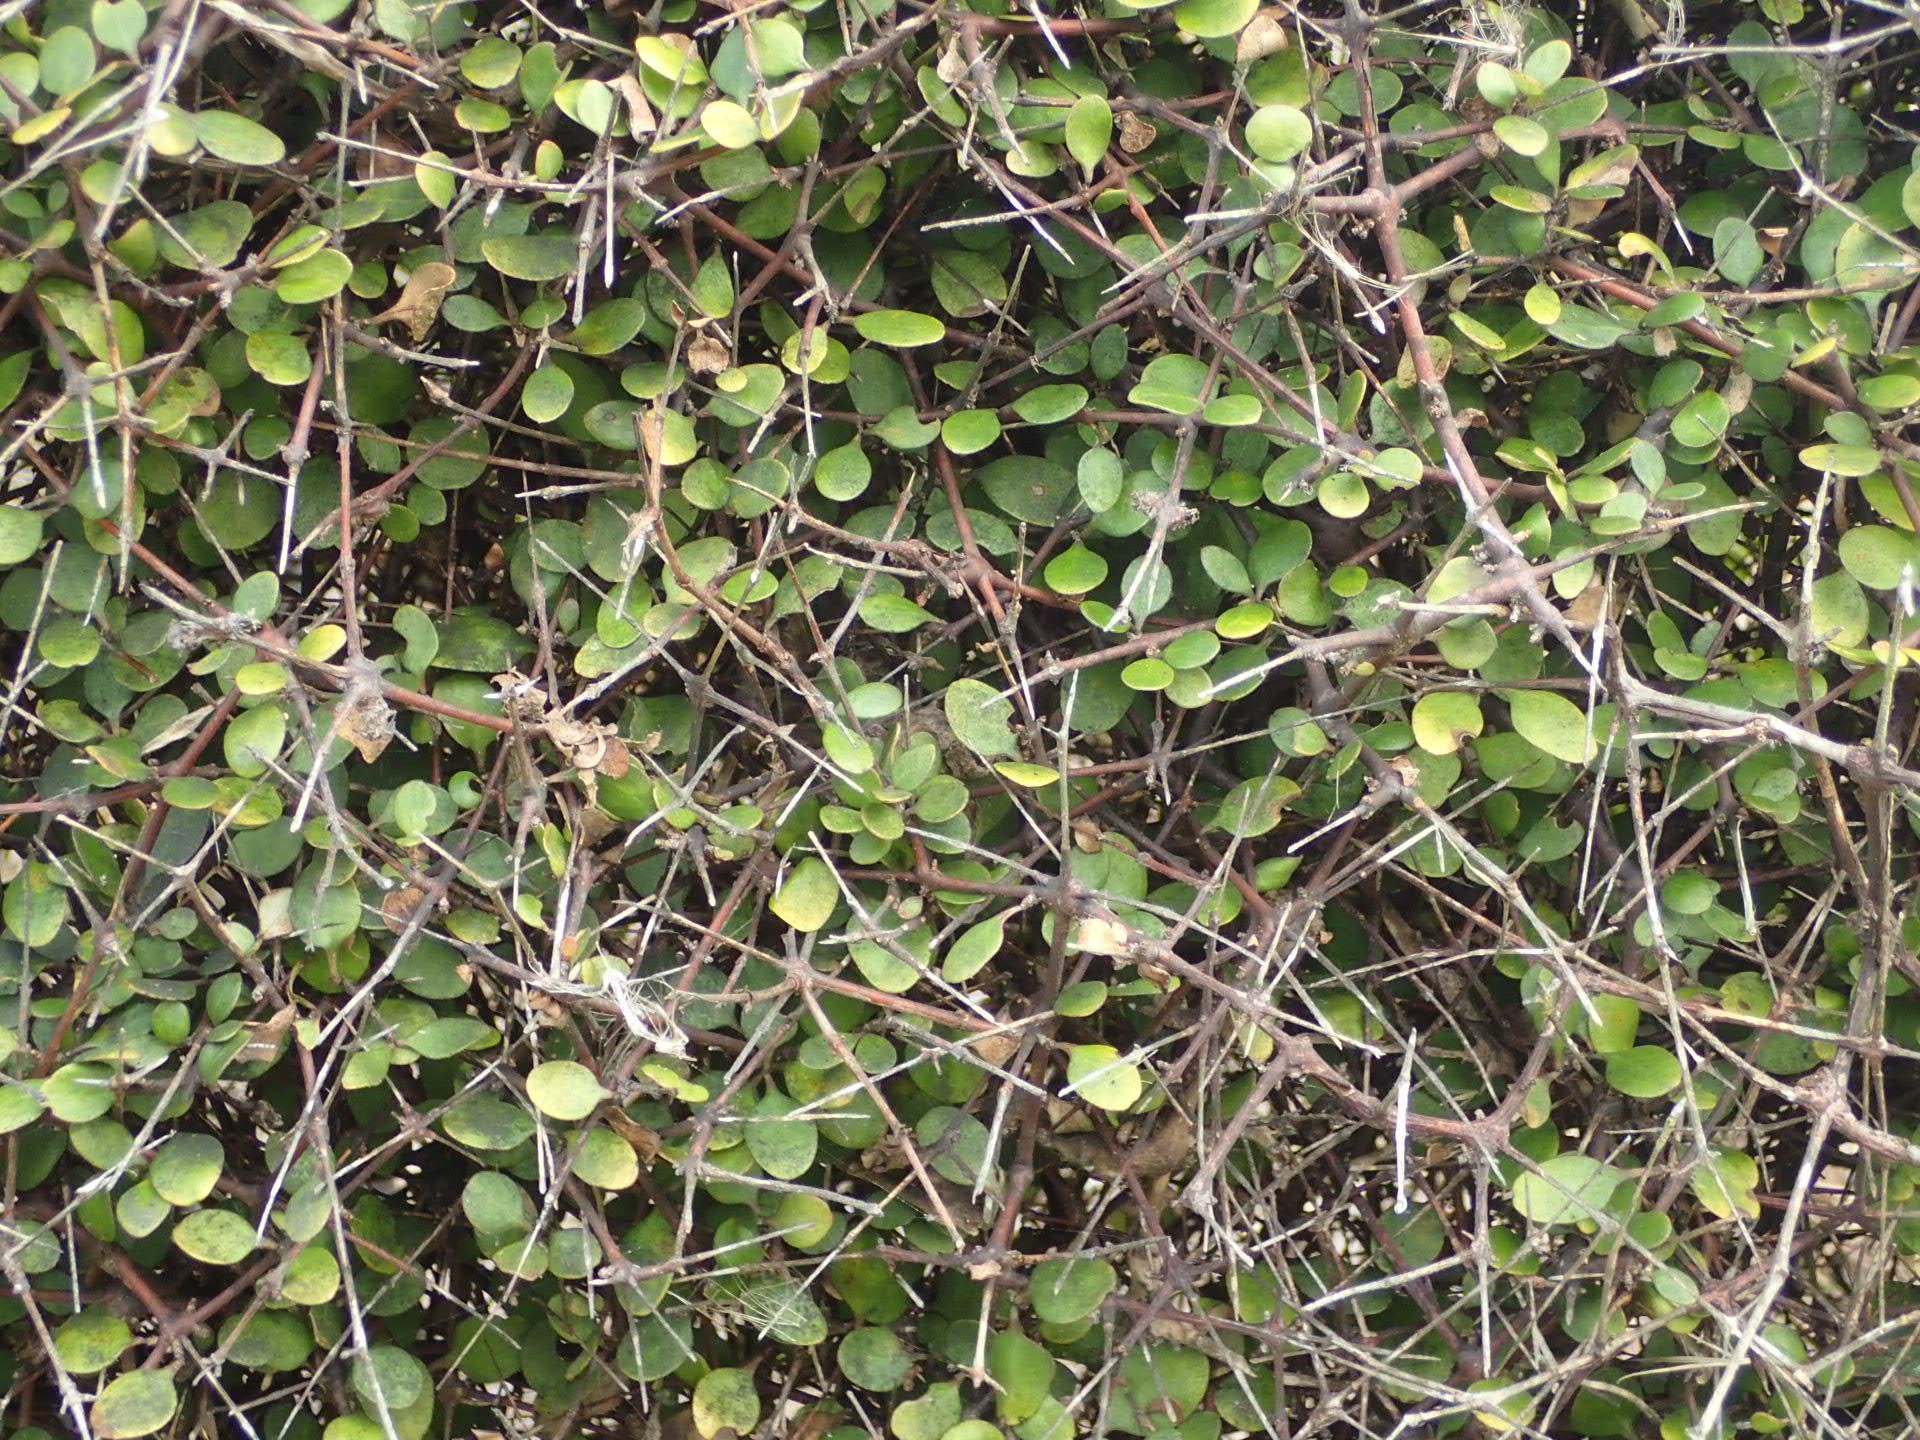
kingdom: Plantae
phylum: Tracheophyta
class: Magnoliopsida
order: Gentianales
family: Rubiaceae
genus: Coprosma
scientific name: Coprosma crassifolia
